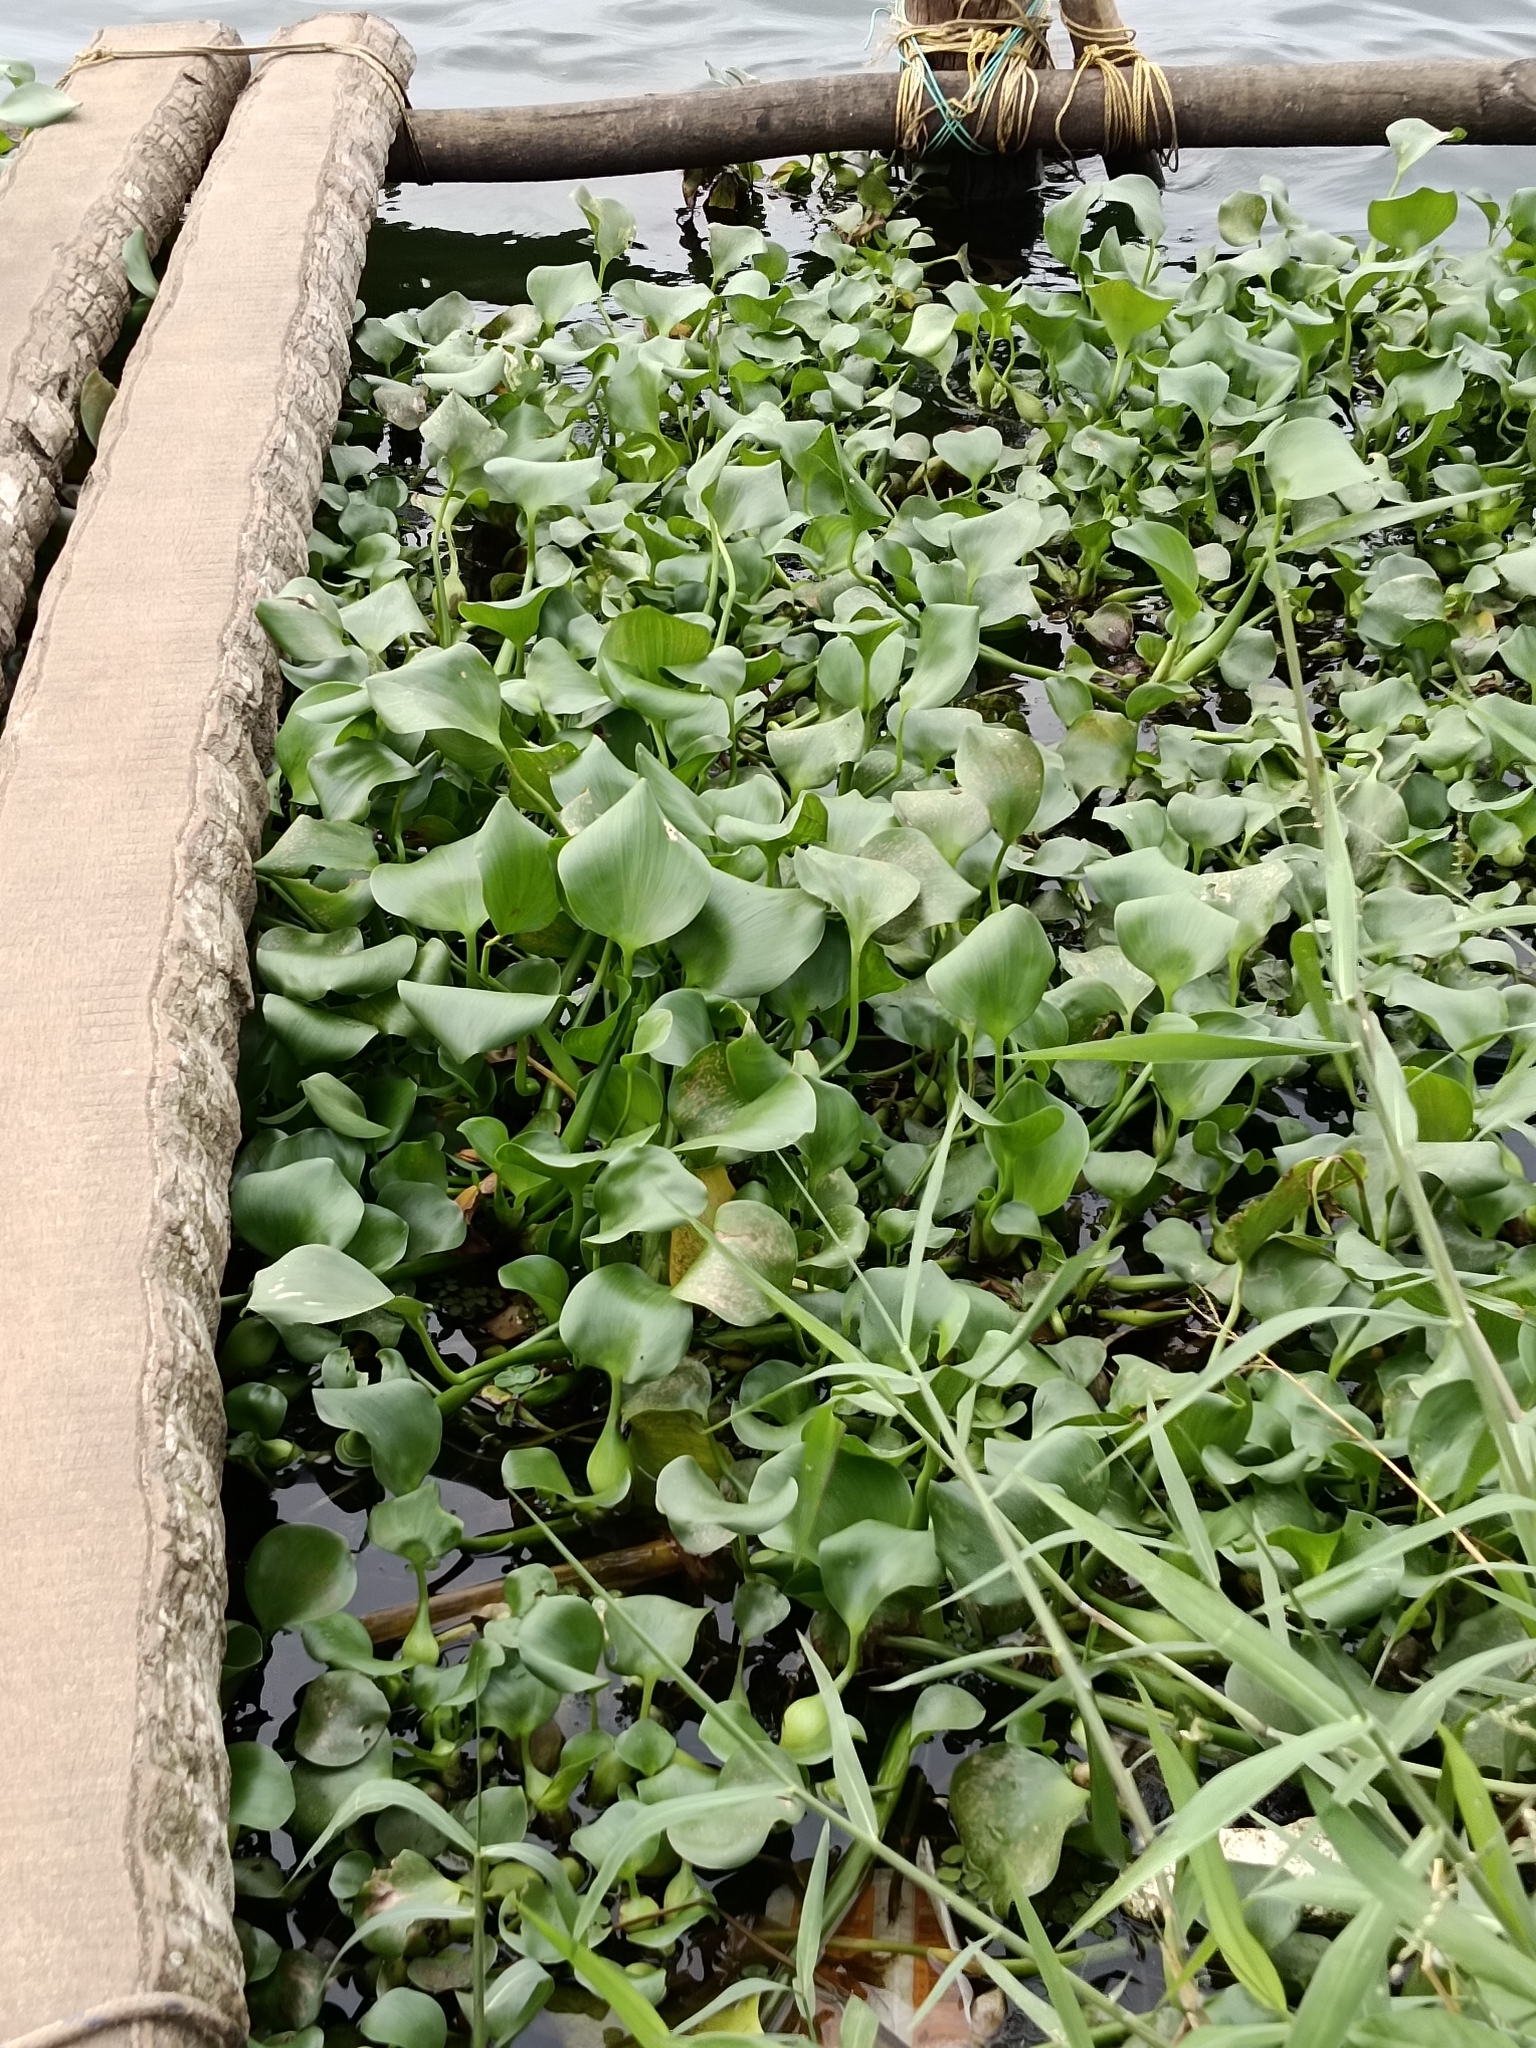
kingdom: Plantae
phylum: Tracheophyta
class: Liliopsida
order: Commelinales
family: Pontederiaceae
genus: Pontederia
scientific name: Pontederia crassipes
